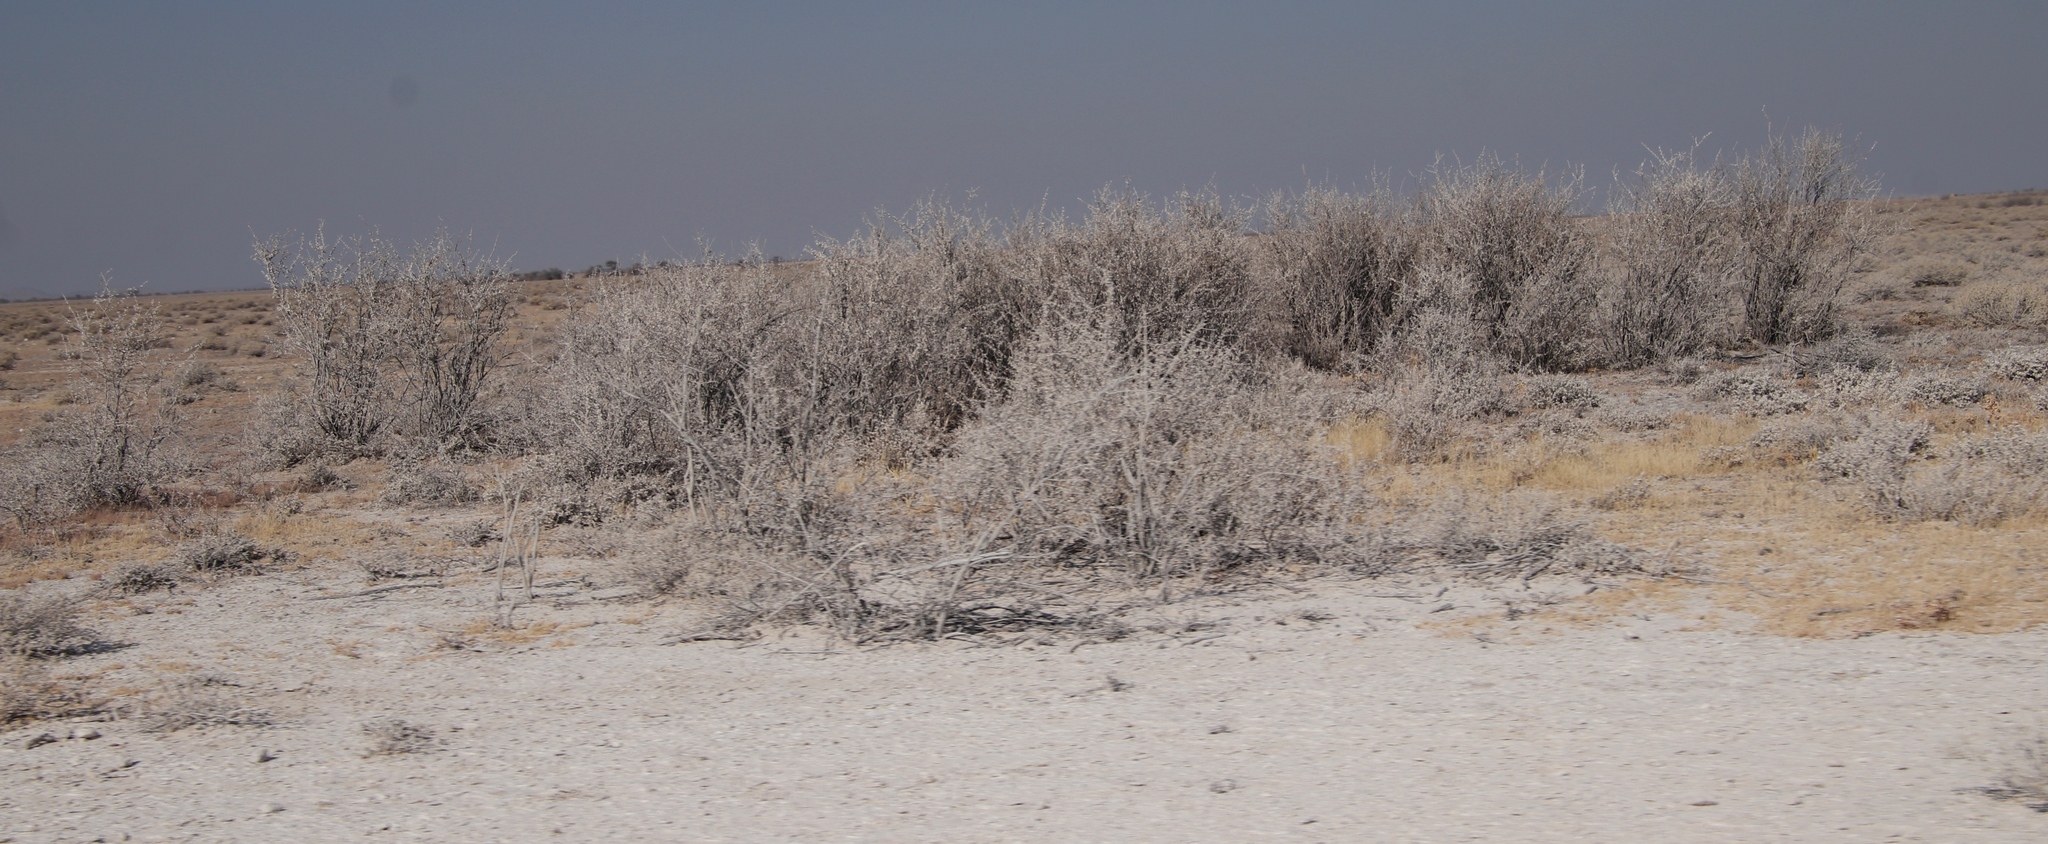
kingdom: Plantae
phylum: Tracheophyta
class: Magnoliopsida
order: Lamiales
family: Bignoniaceae
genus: Catophractes
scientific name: Catophractes alexandri
